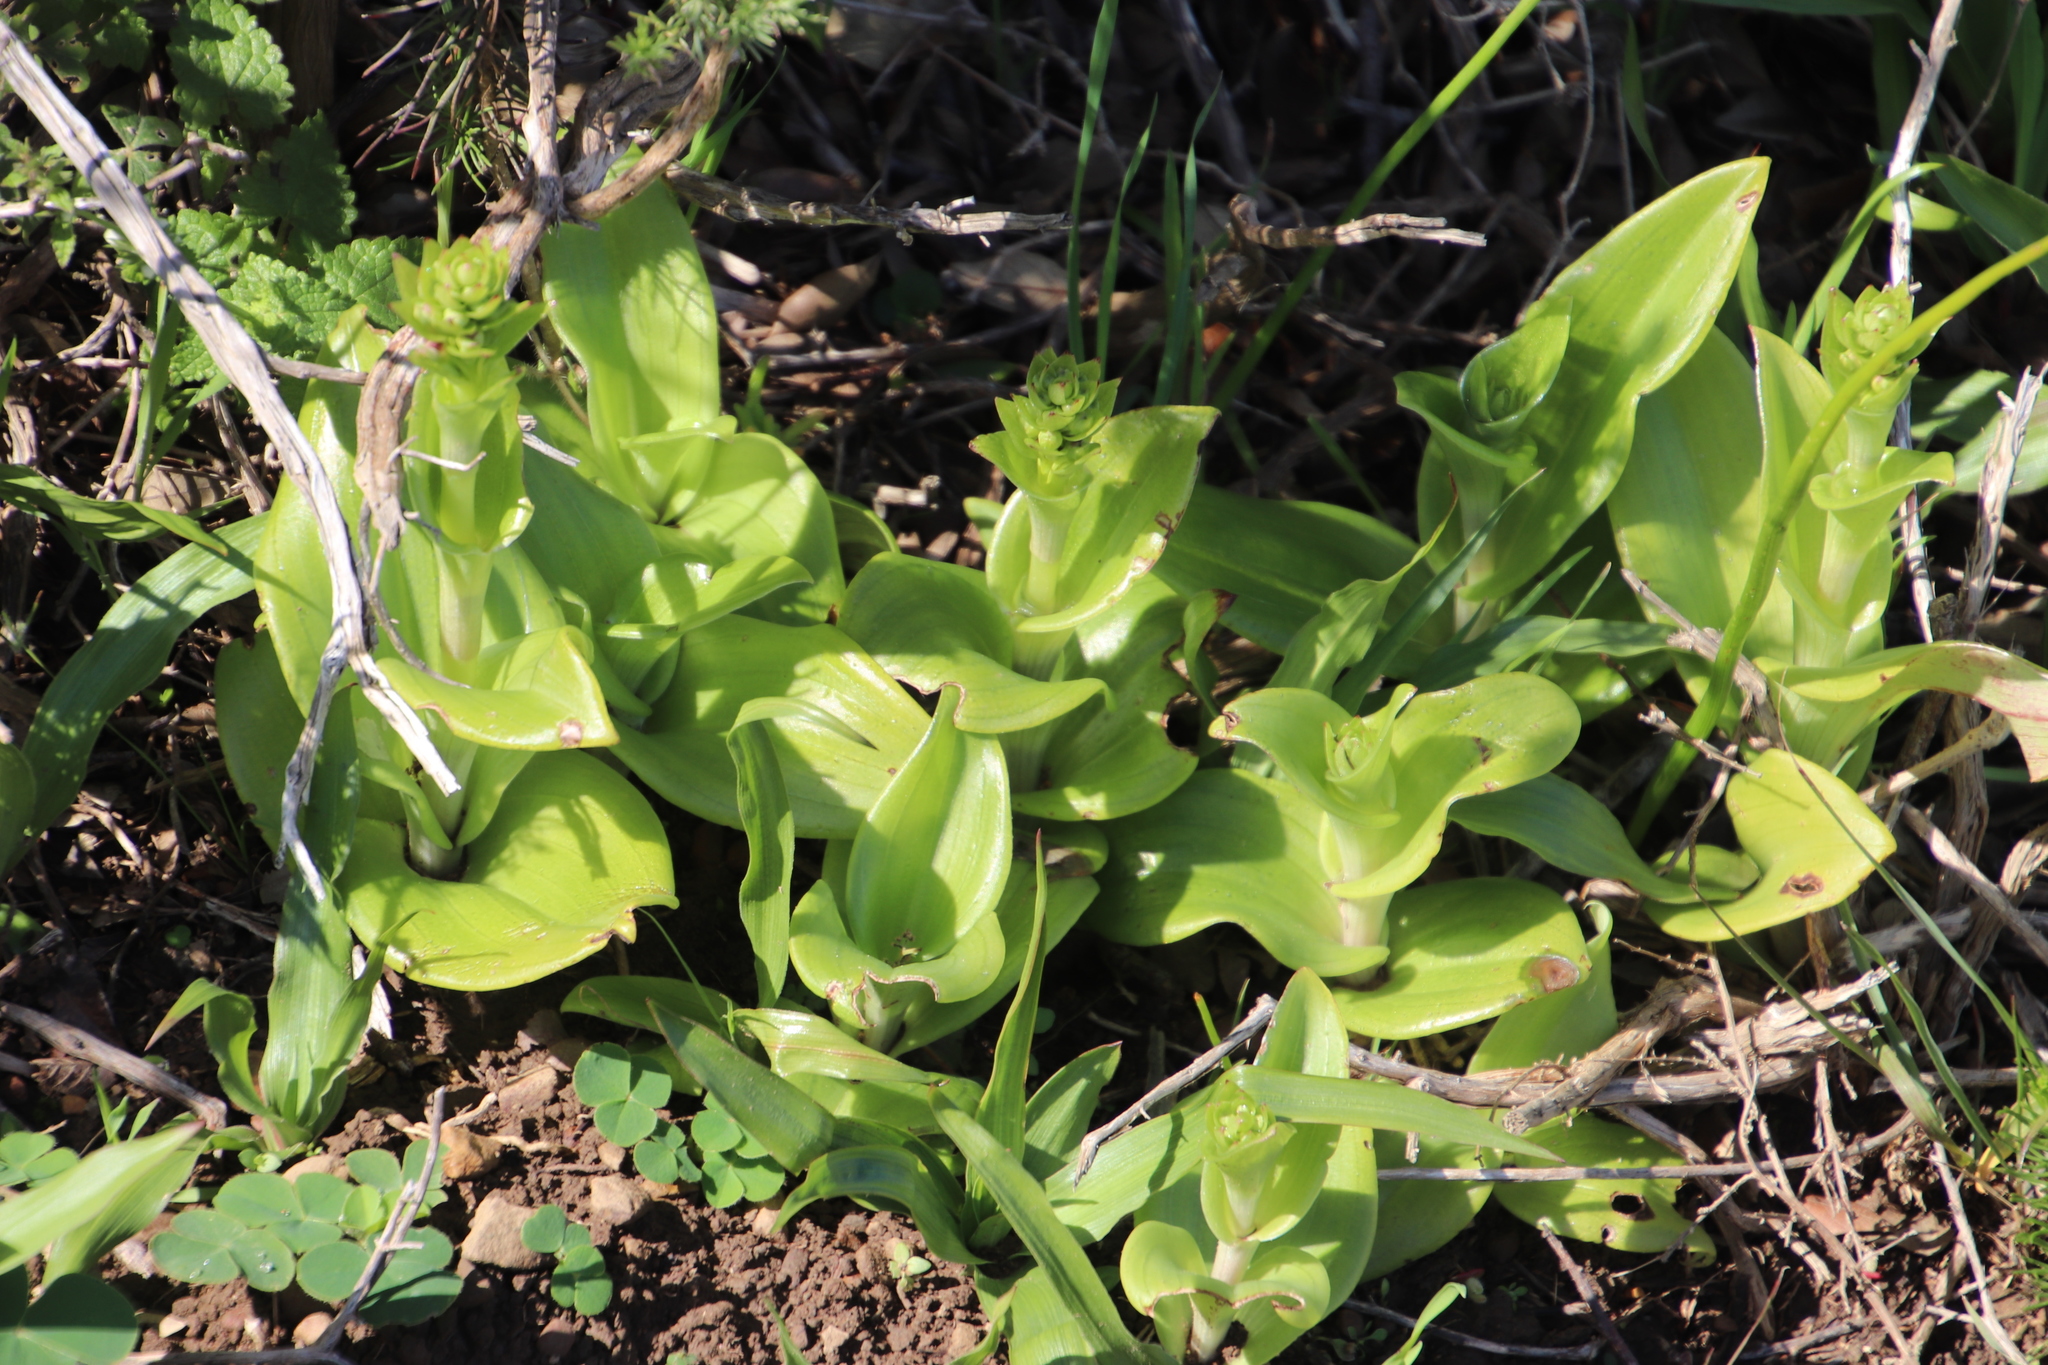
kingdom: Plantae
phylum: Tracheophyta
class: Liliopsida
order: Asparagales
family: Orchidaceae
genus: Satyrium
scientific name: Satyrium odorum
